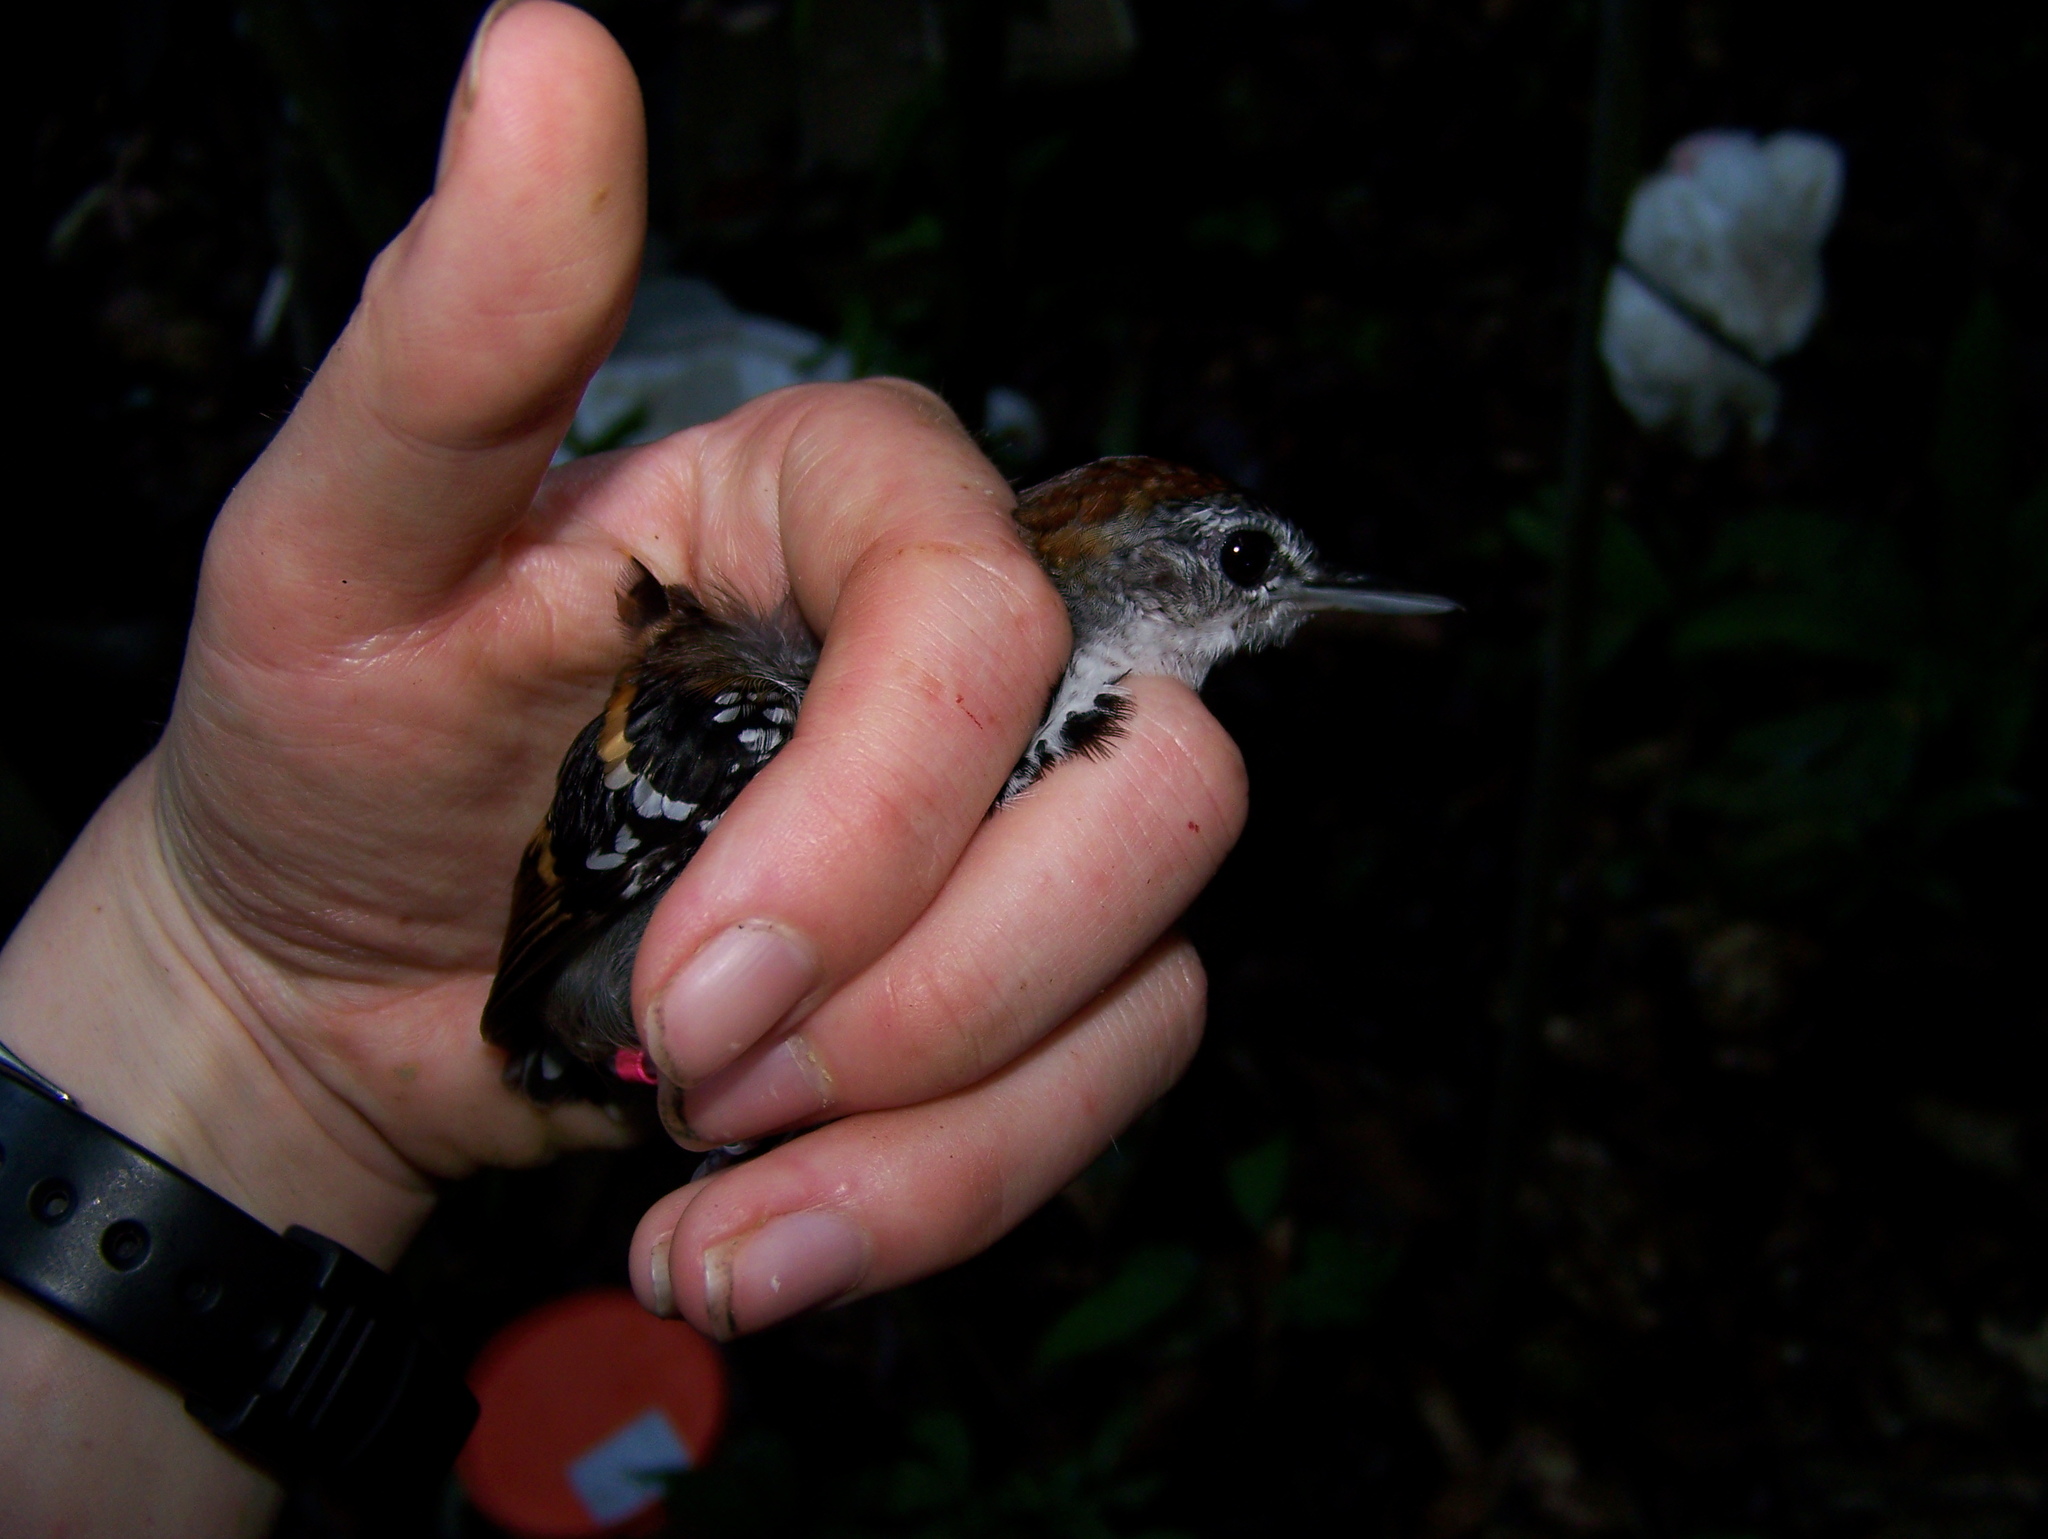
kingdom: Animalia
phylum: Chordata
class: Aves
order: Passeriformes
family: Thamnophilidae
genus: Dichrozona
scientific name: Dichrozona cincta
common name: Banded antbird
